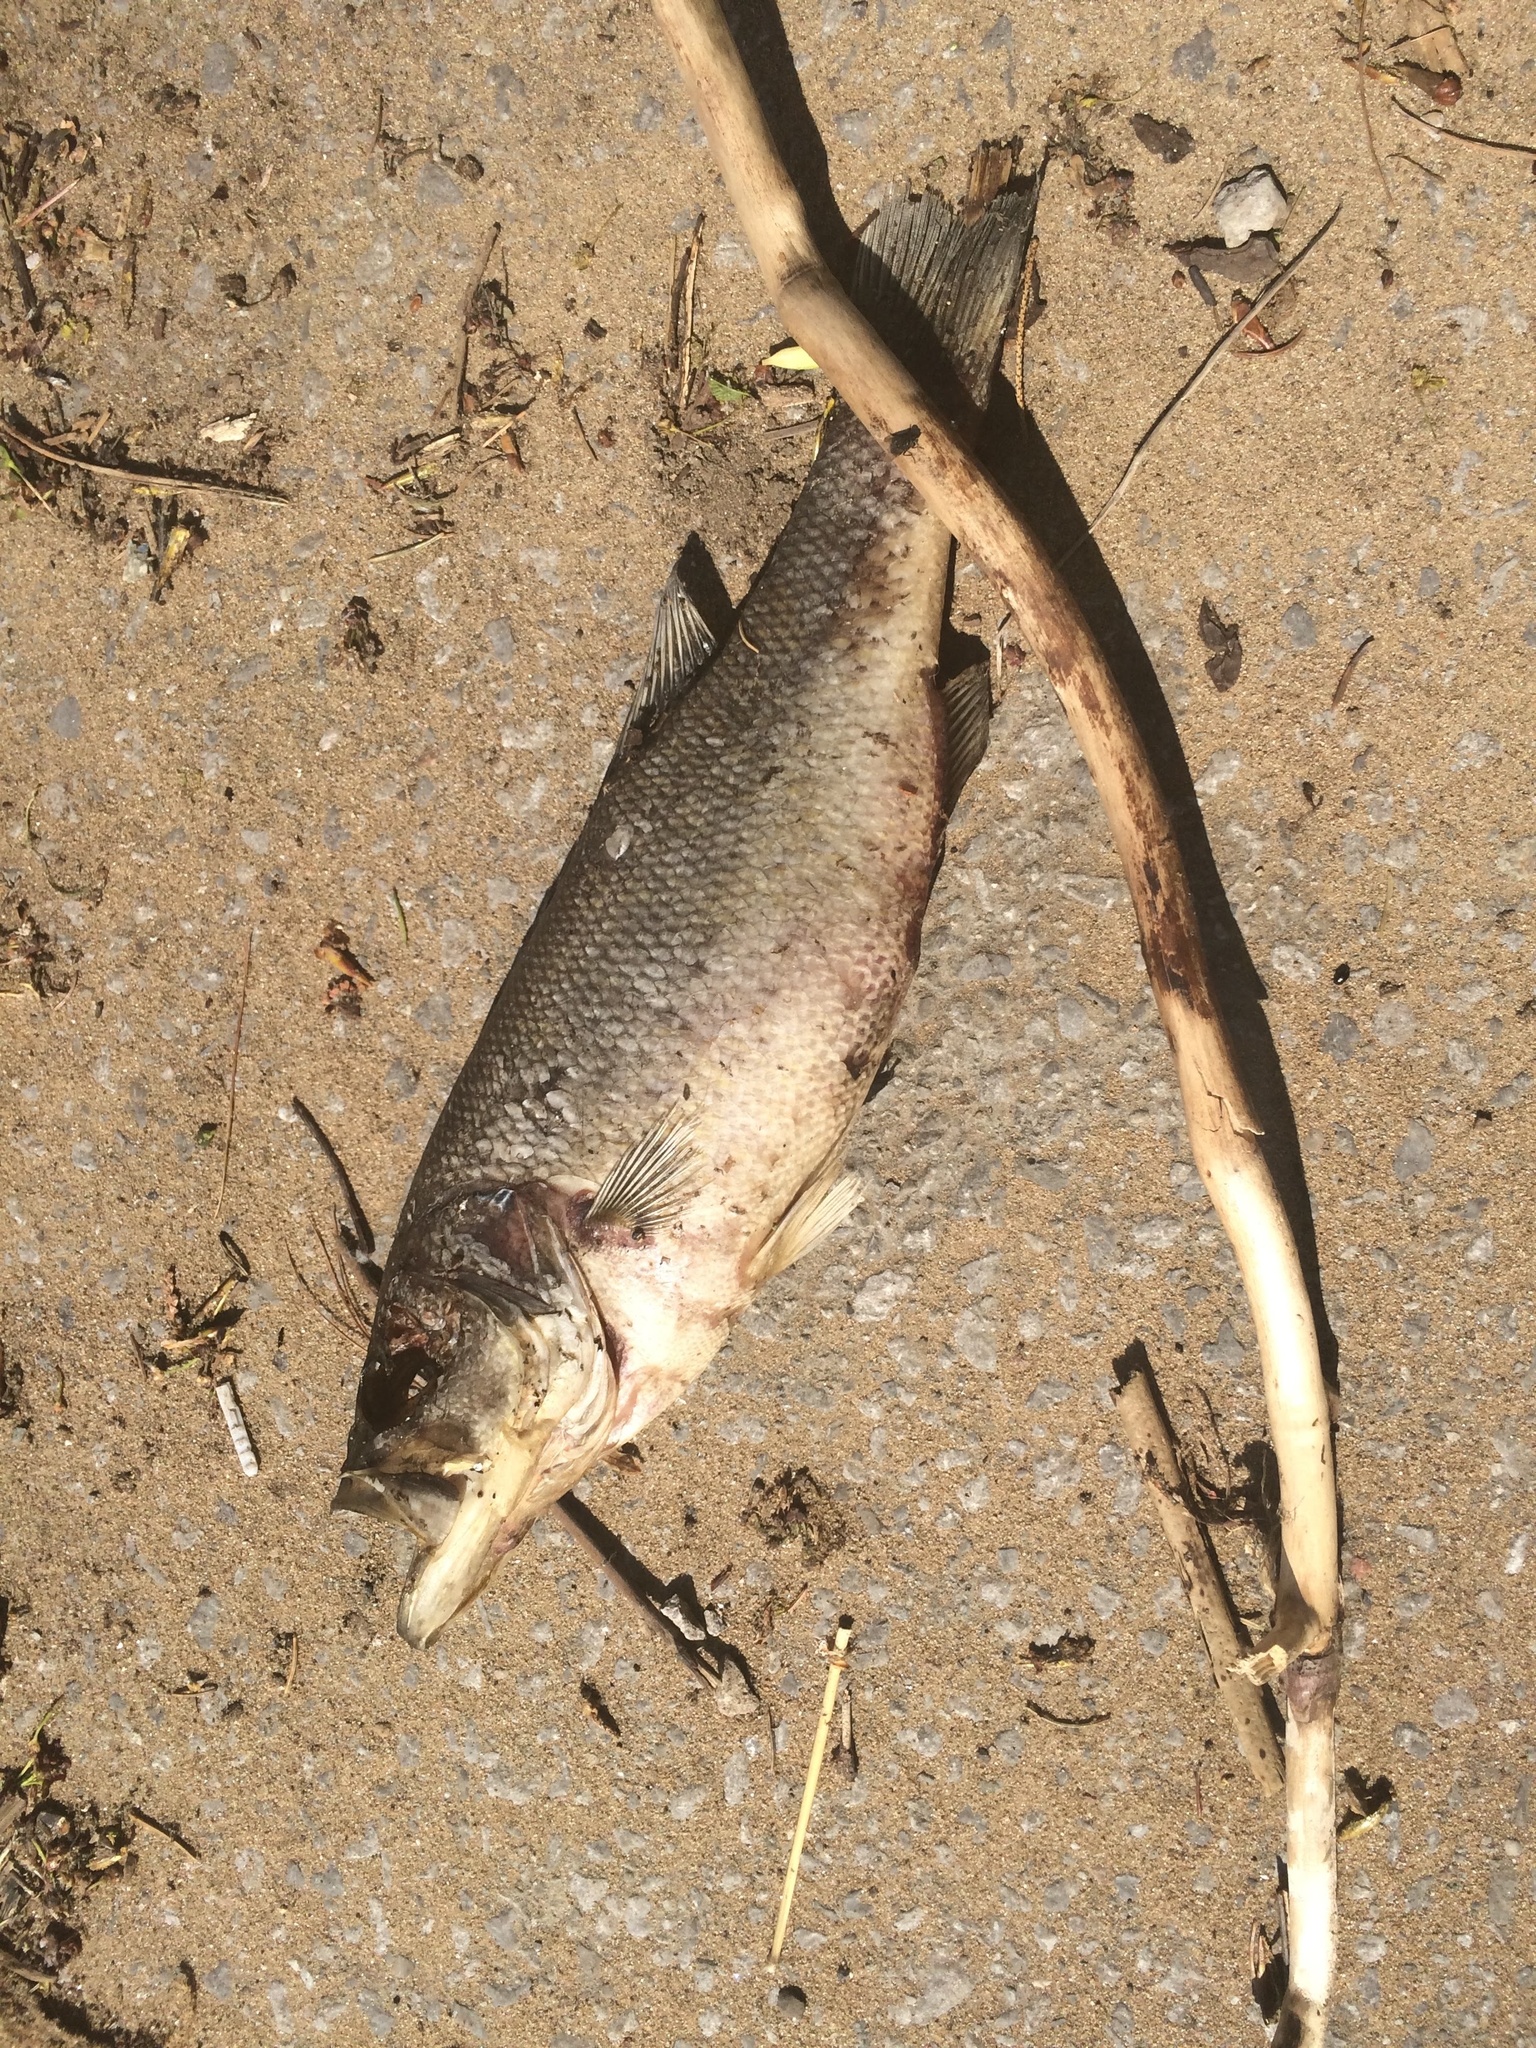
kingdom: Animalia
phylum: Chordata
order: Perciformes
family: Centrarchidae
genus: Micropterus
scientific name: Micropterus
